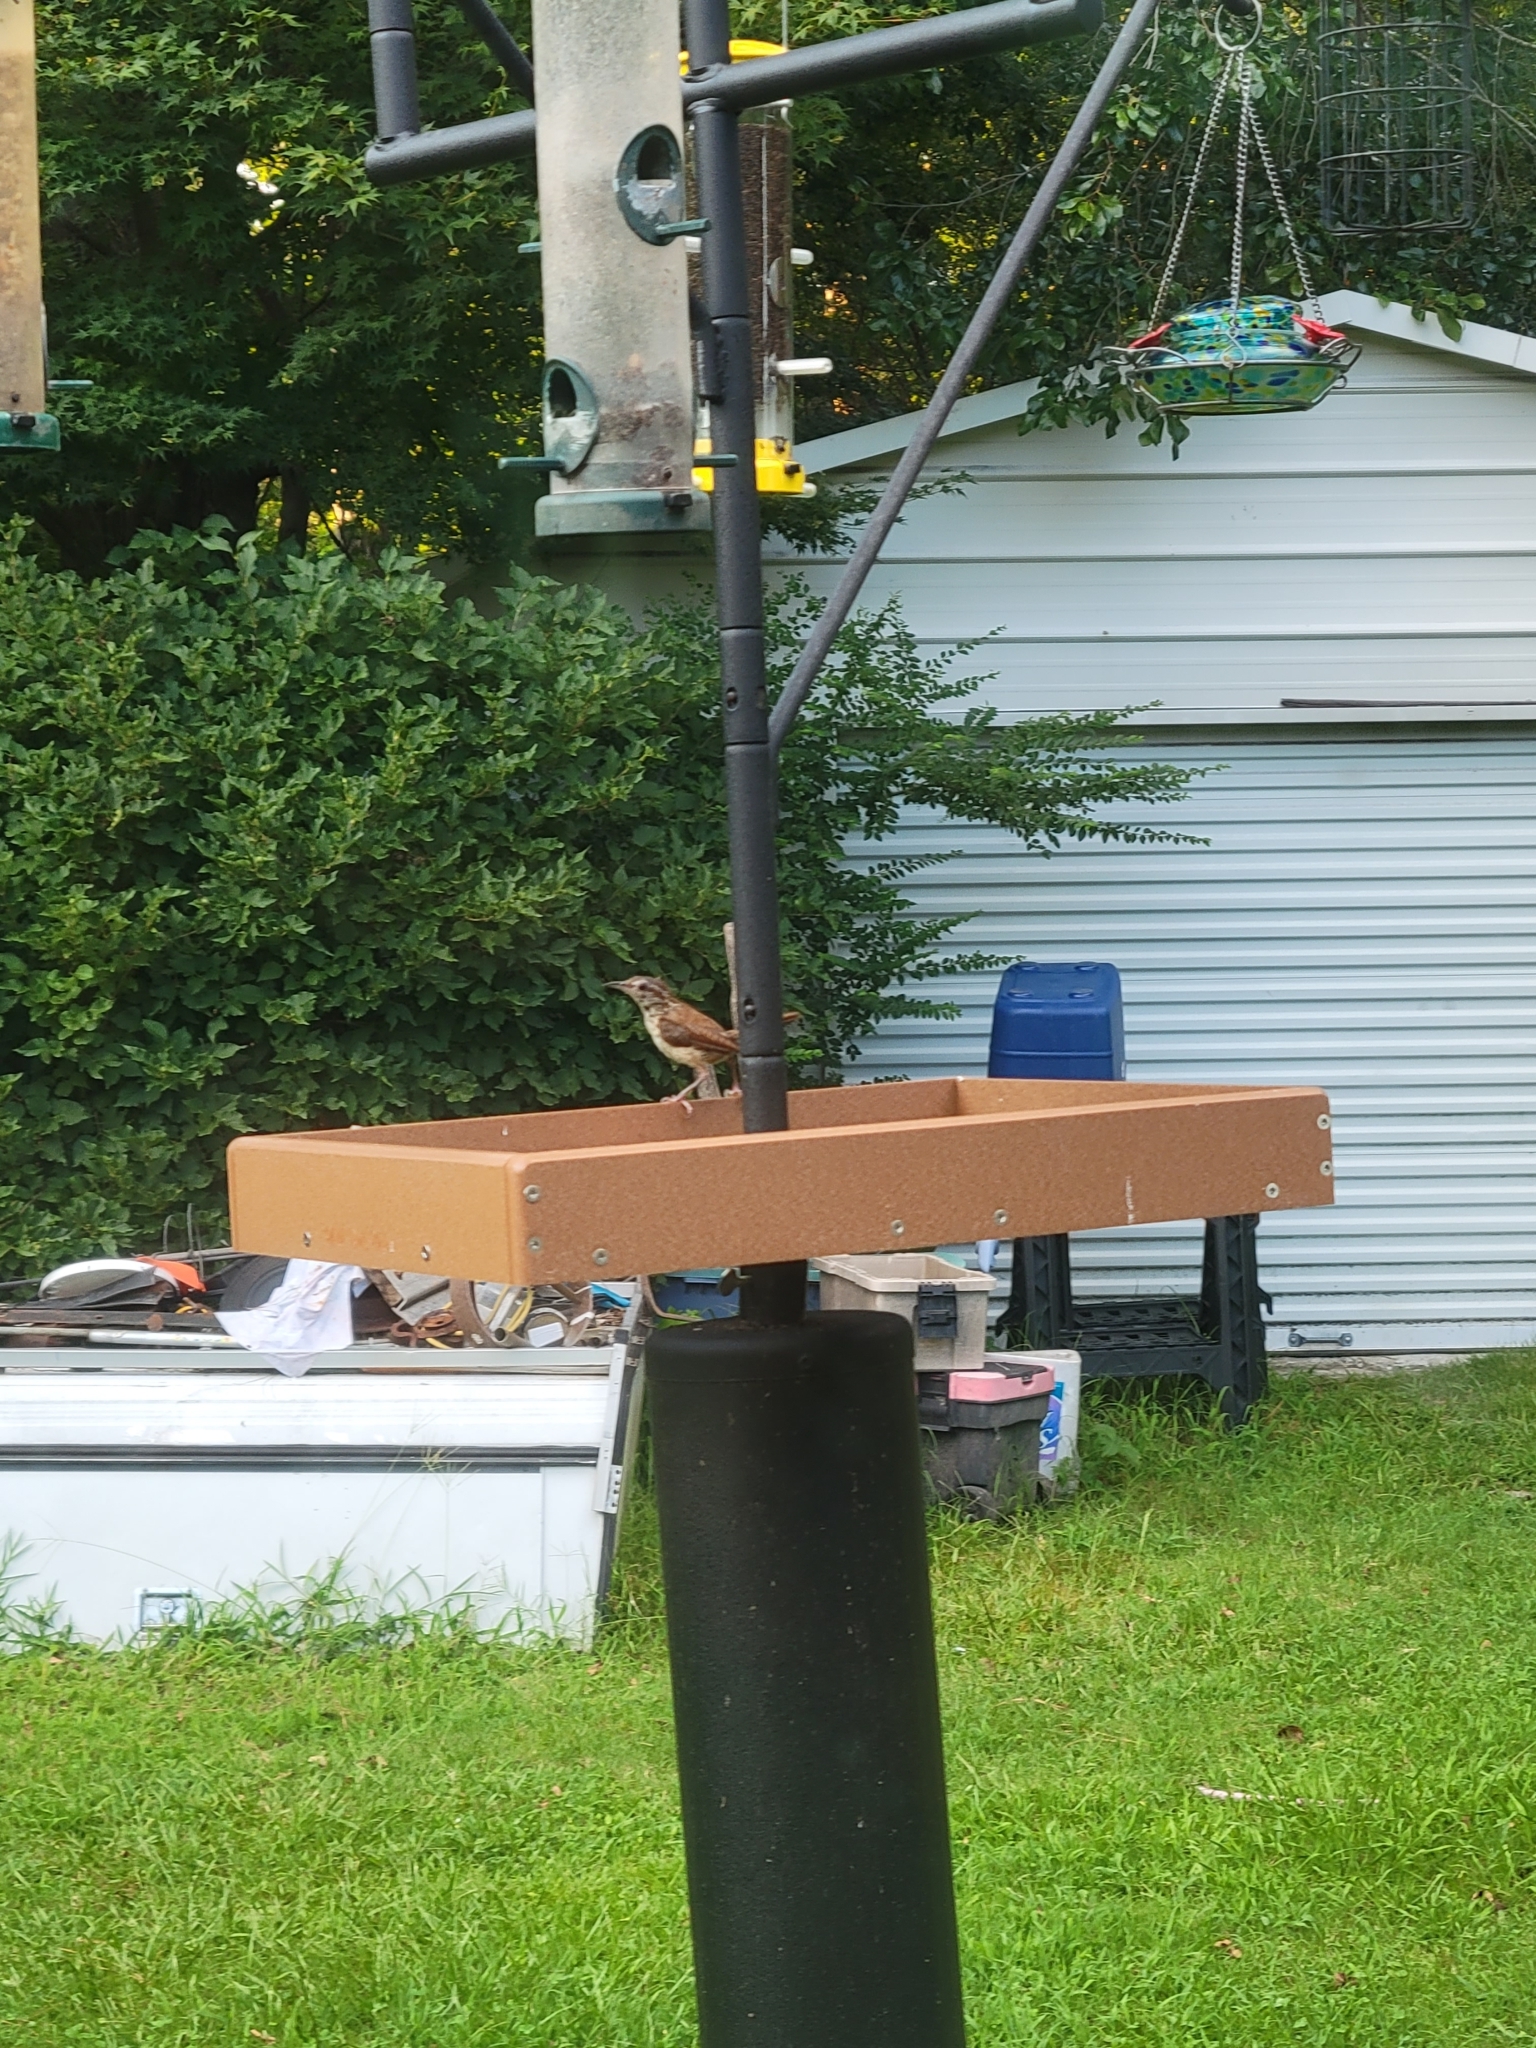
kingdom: Animalia
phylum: Chordata
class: Aves
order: Passeriformes
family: Troglodytidae
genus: Thryothorus
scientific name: Thryothorus ludovicianus
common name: Carolina wren
